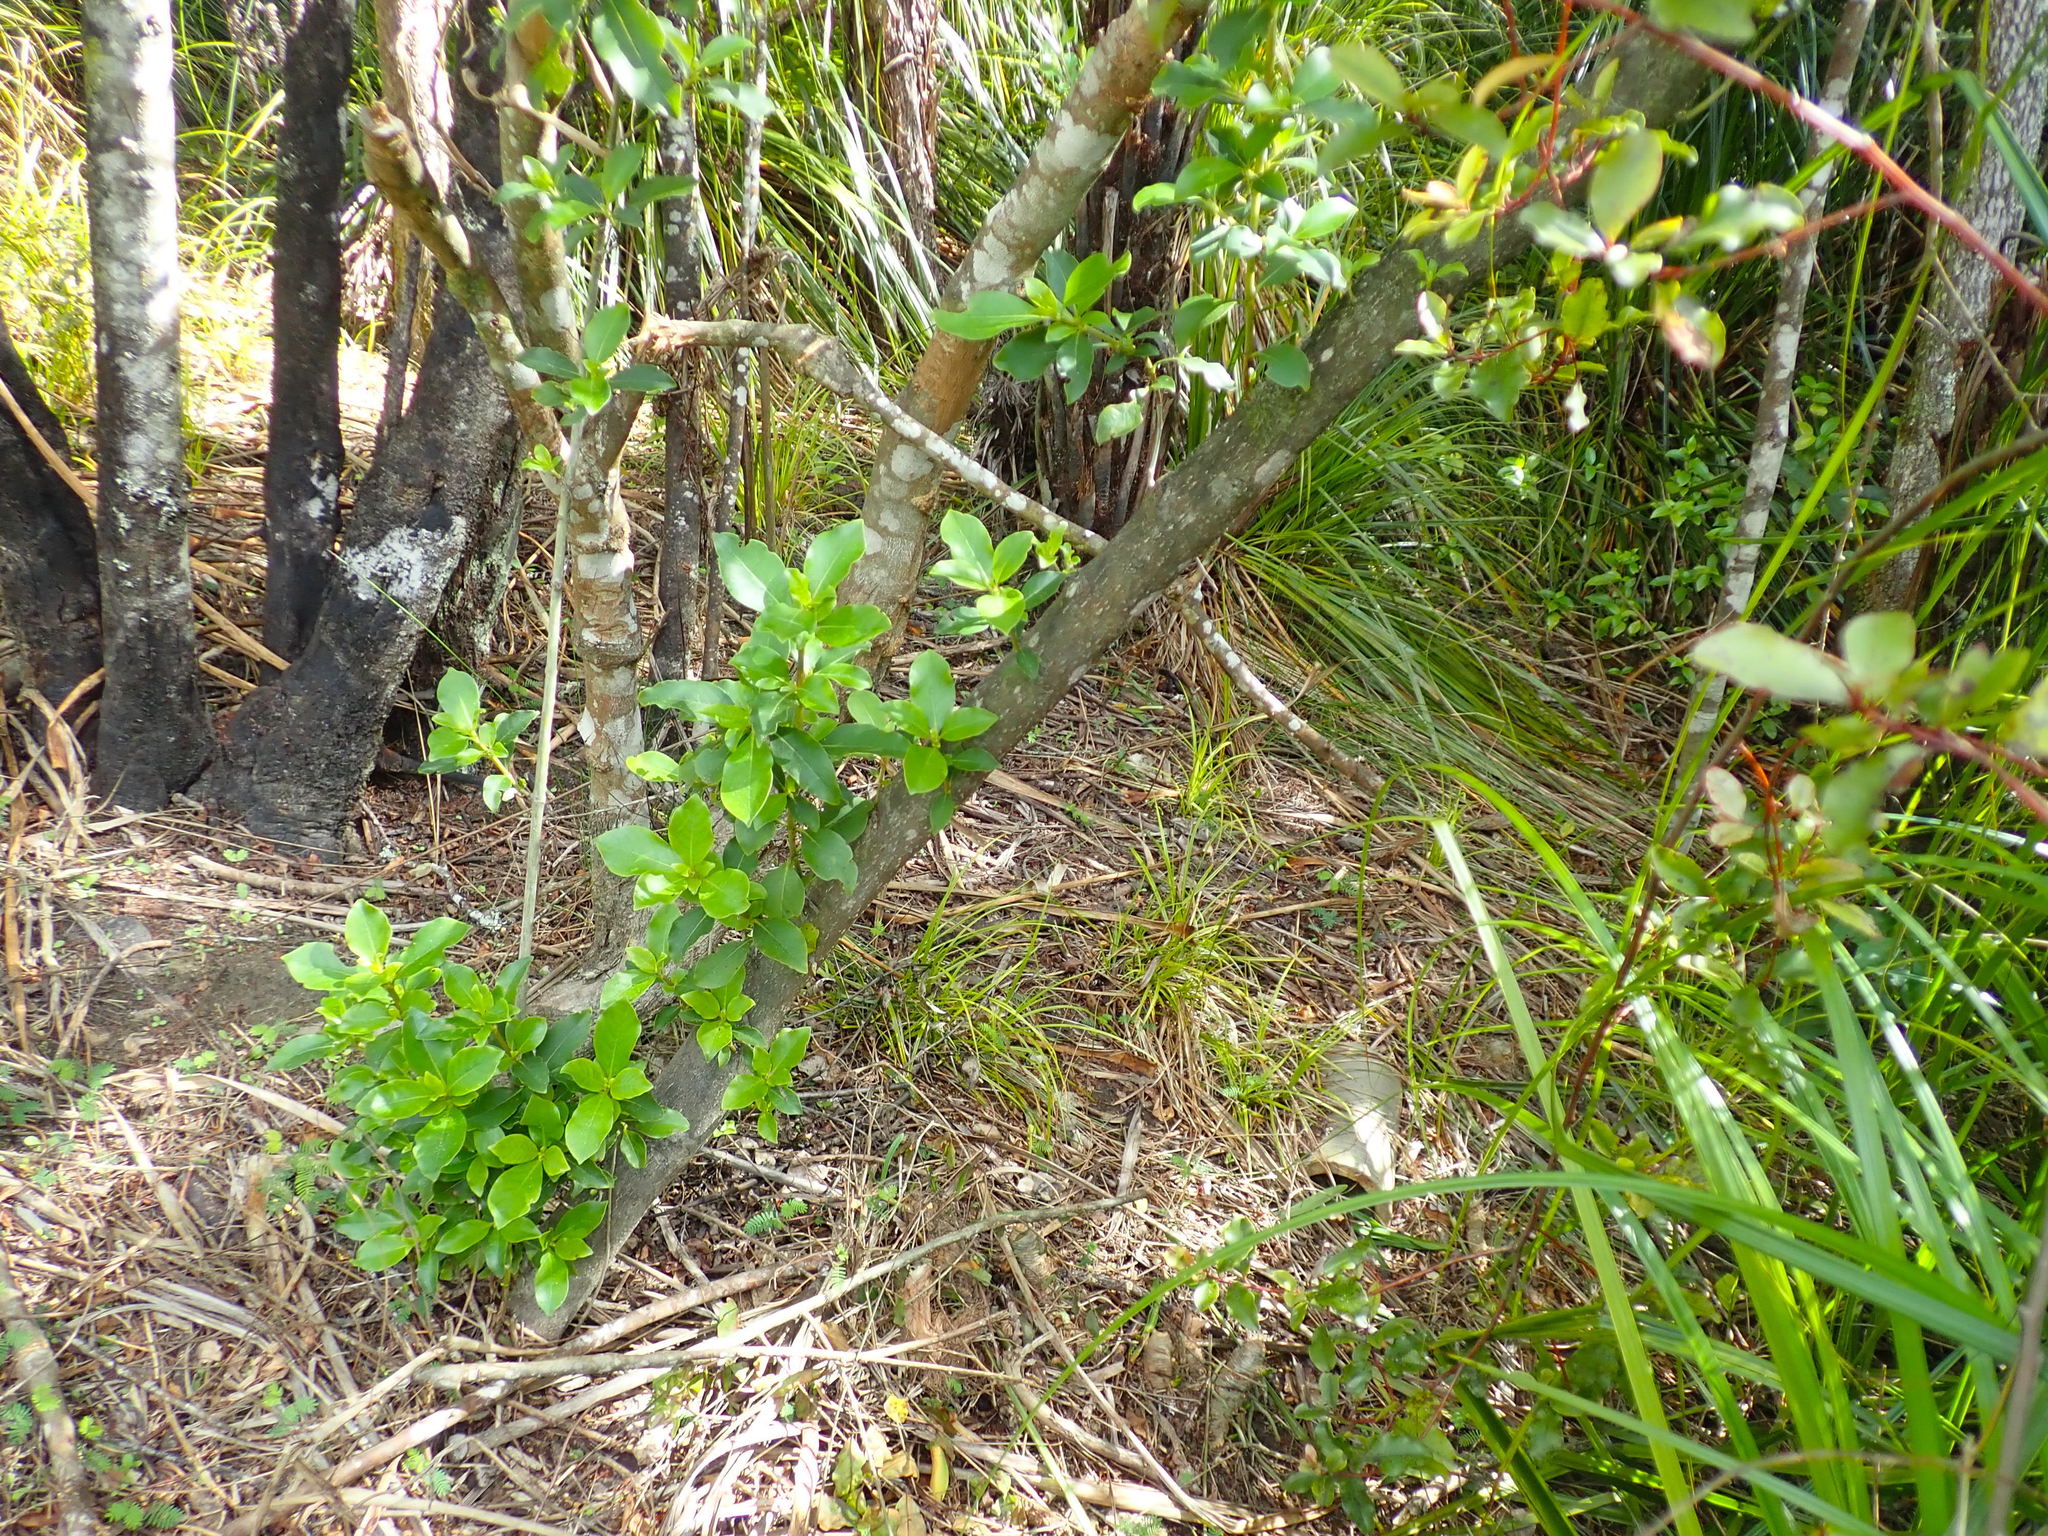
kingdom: Plantae
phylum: Tracheophyta
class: Magnoliopsida
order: Gentianales
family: Rubiaceae
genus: Coprosma
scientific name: Coprosma robusta
